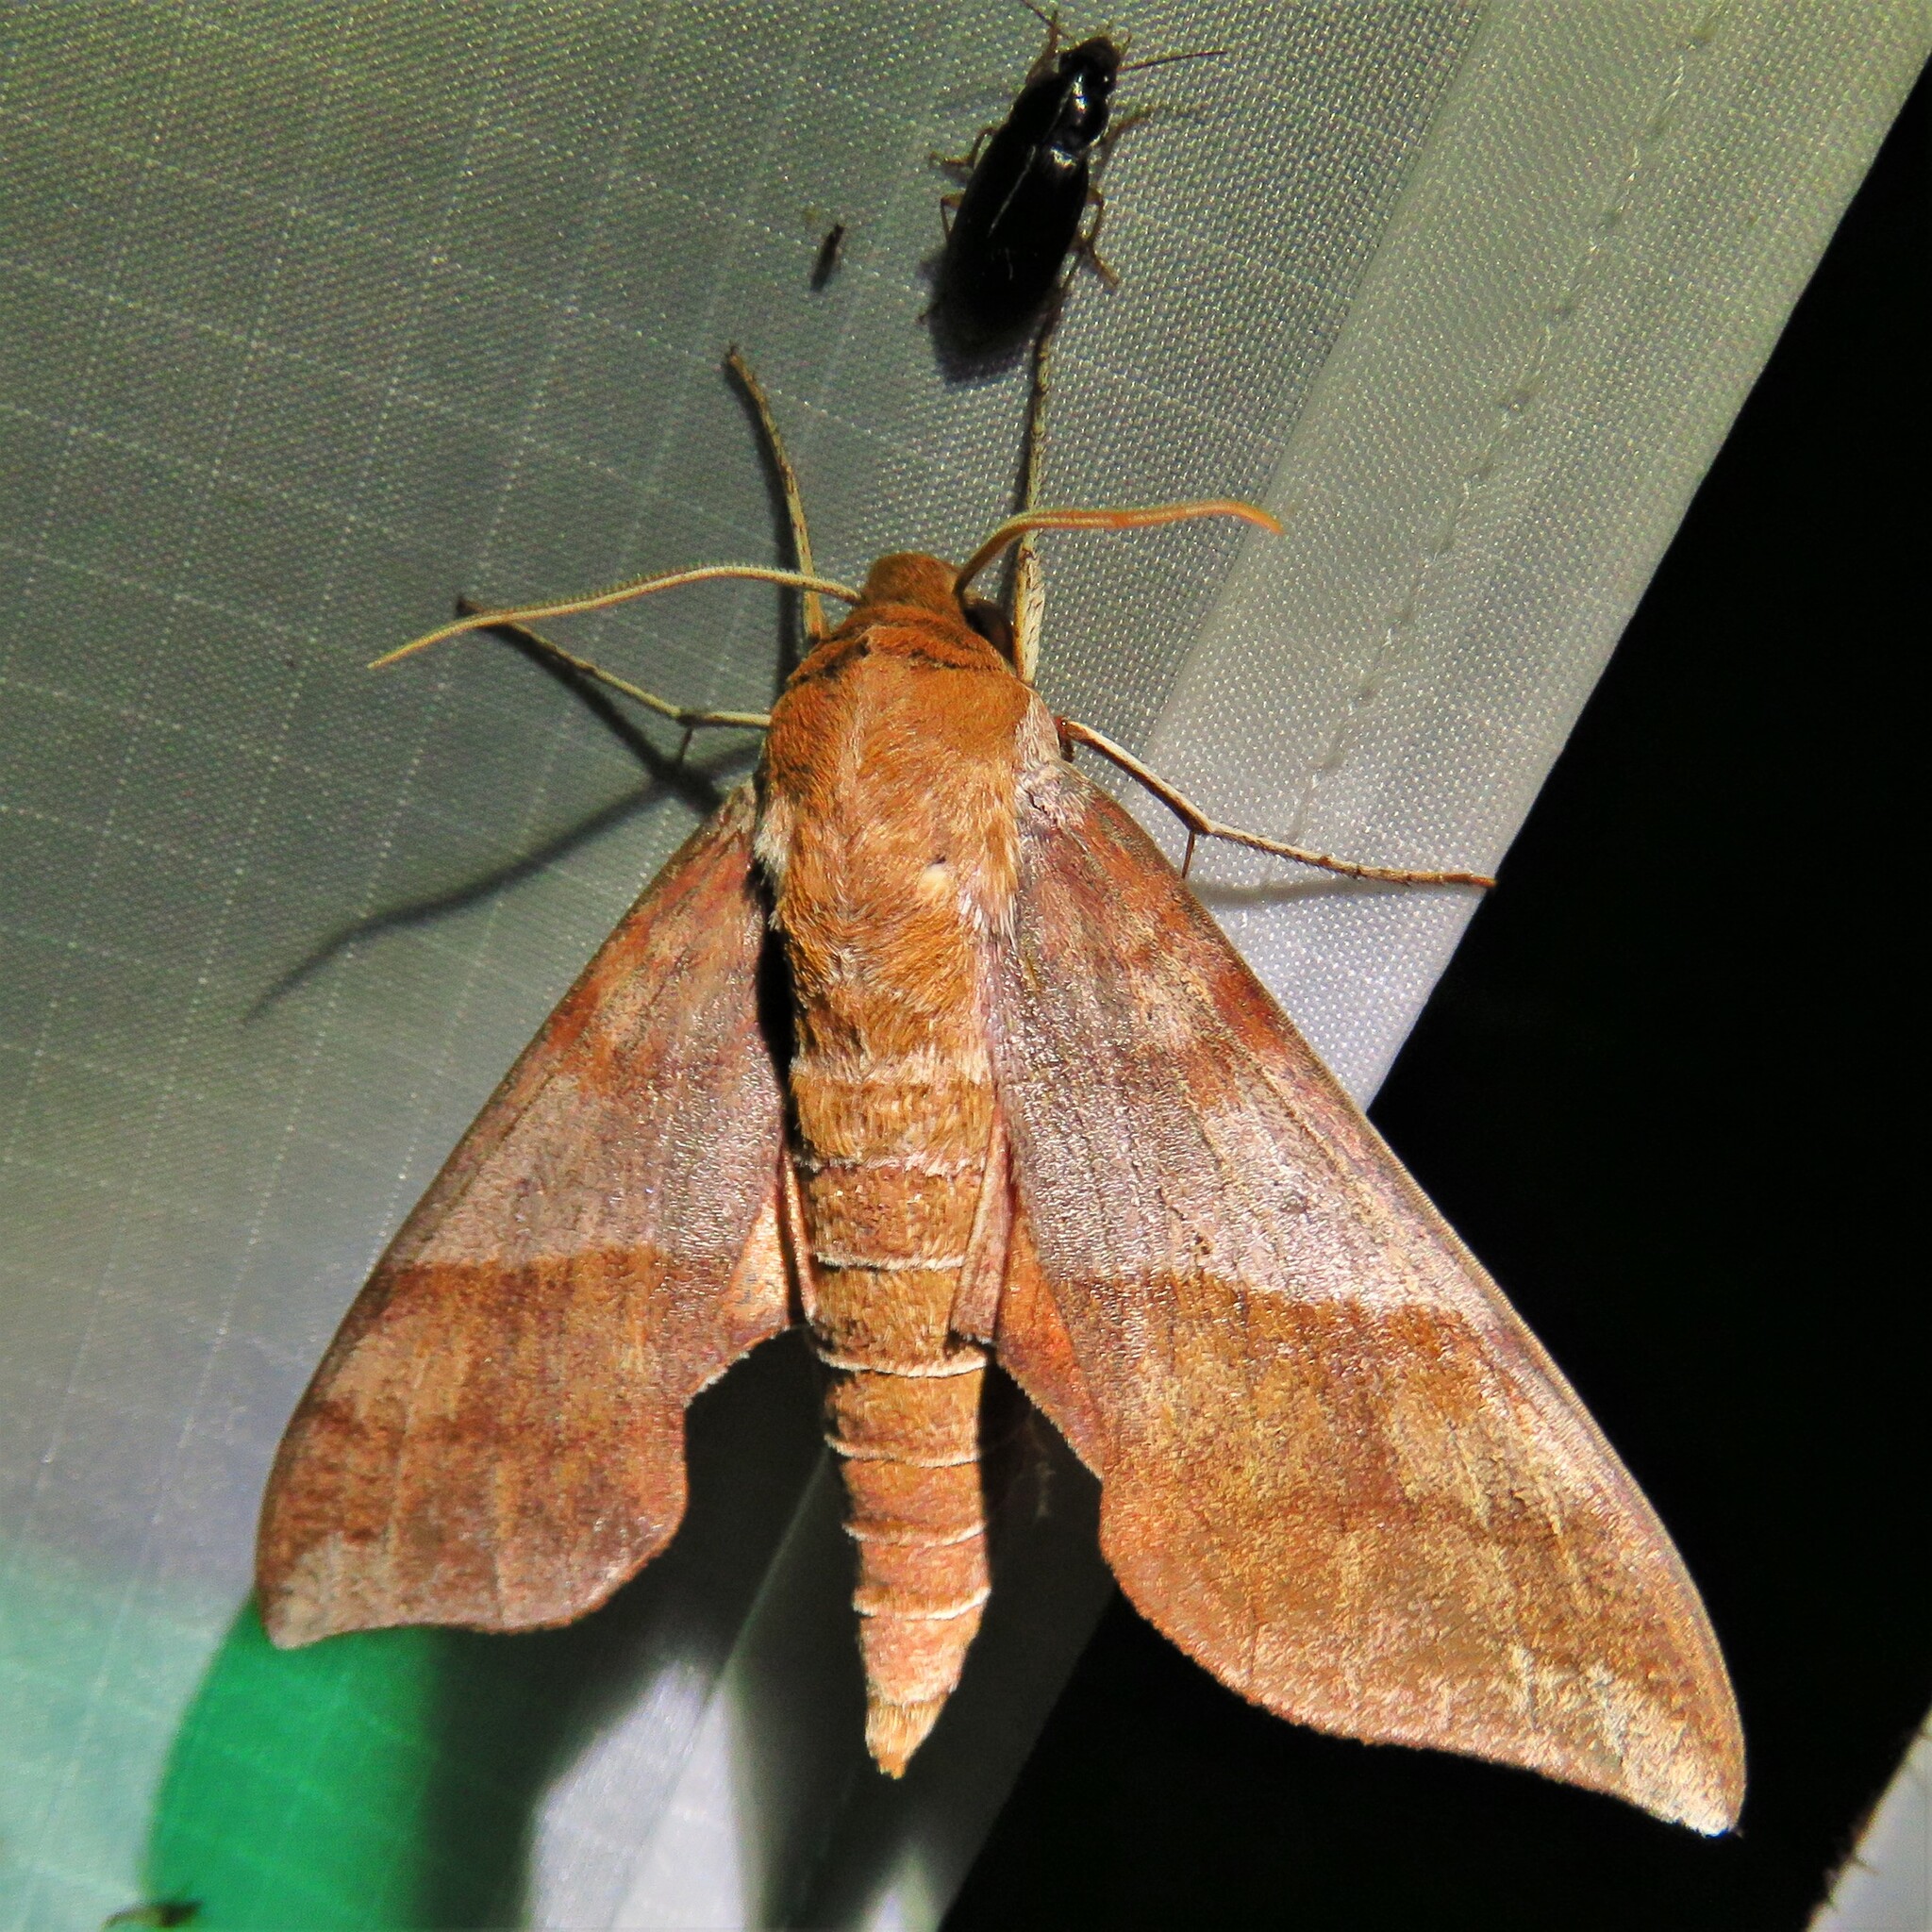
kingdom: Animalia
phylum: Arthropoda
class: Insecta
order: Lepidoptera
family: Sphingidae
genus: Darapsa
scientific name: Darapsa choerilus
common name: Azalea sphinx
